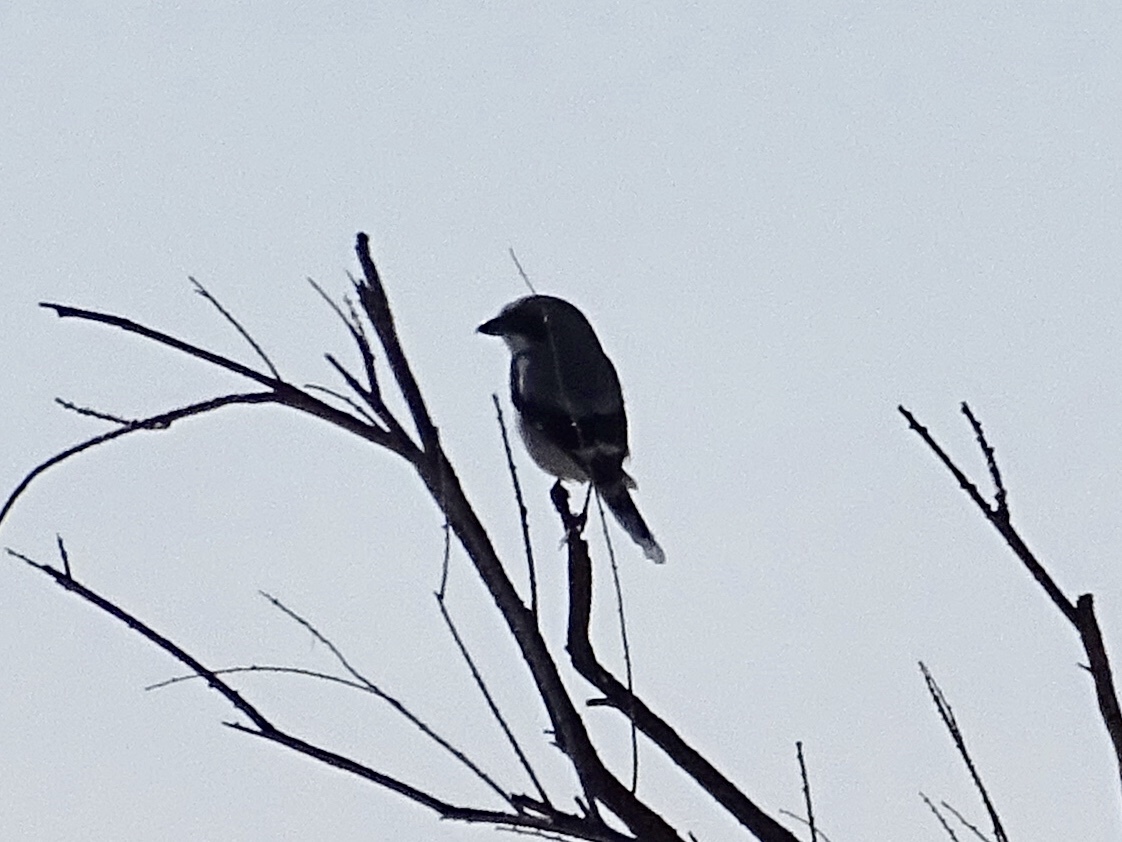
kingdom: Animalia
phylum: Chordata
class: Aves
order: Passeriformes
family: Laniidae
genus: Lanius
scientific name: Lanius ludovicianus
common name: Loggerhead shrike
